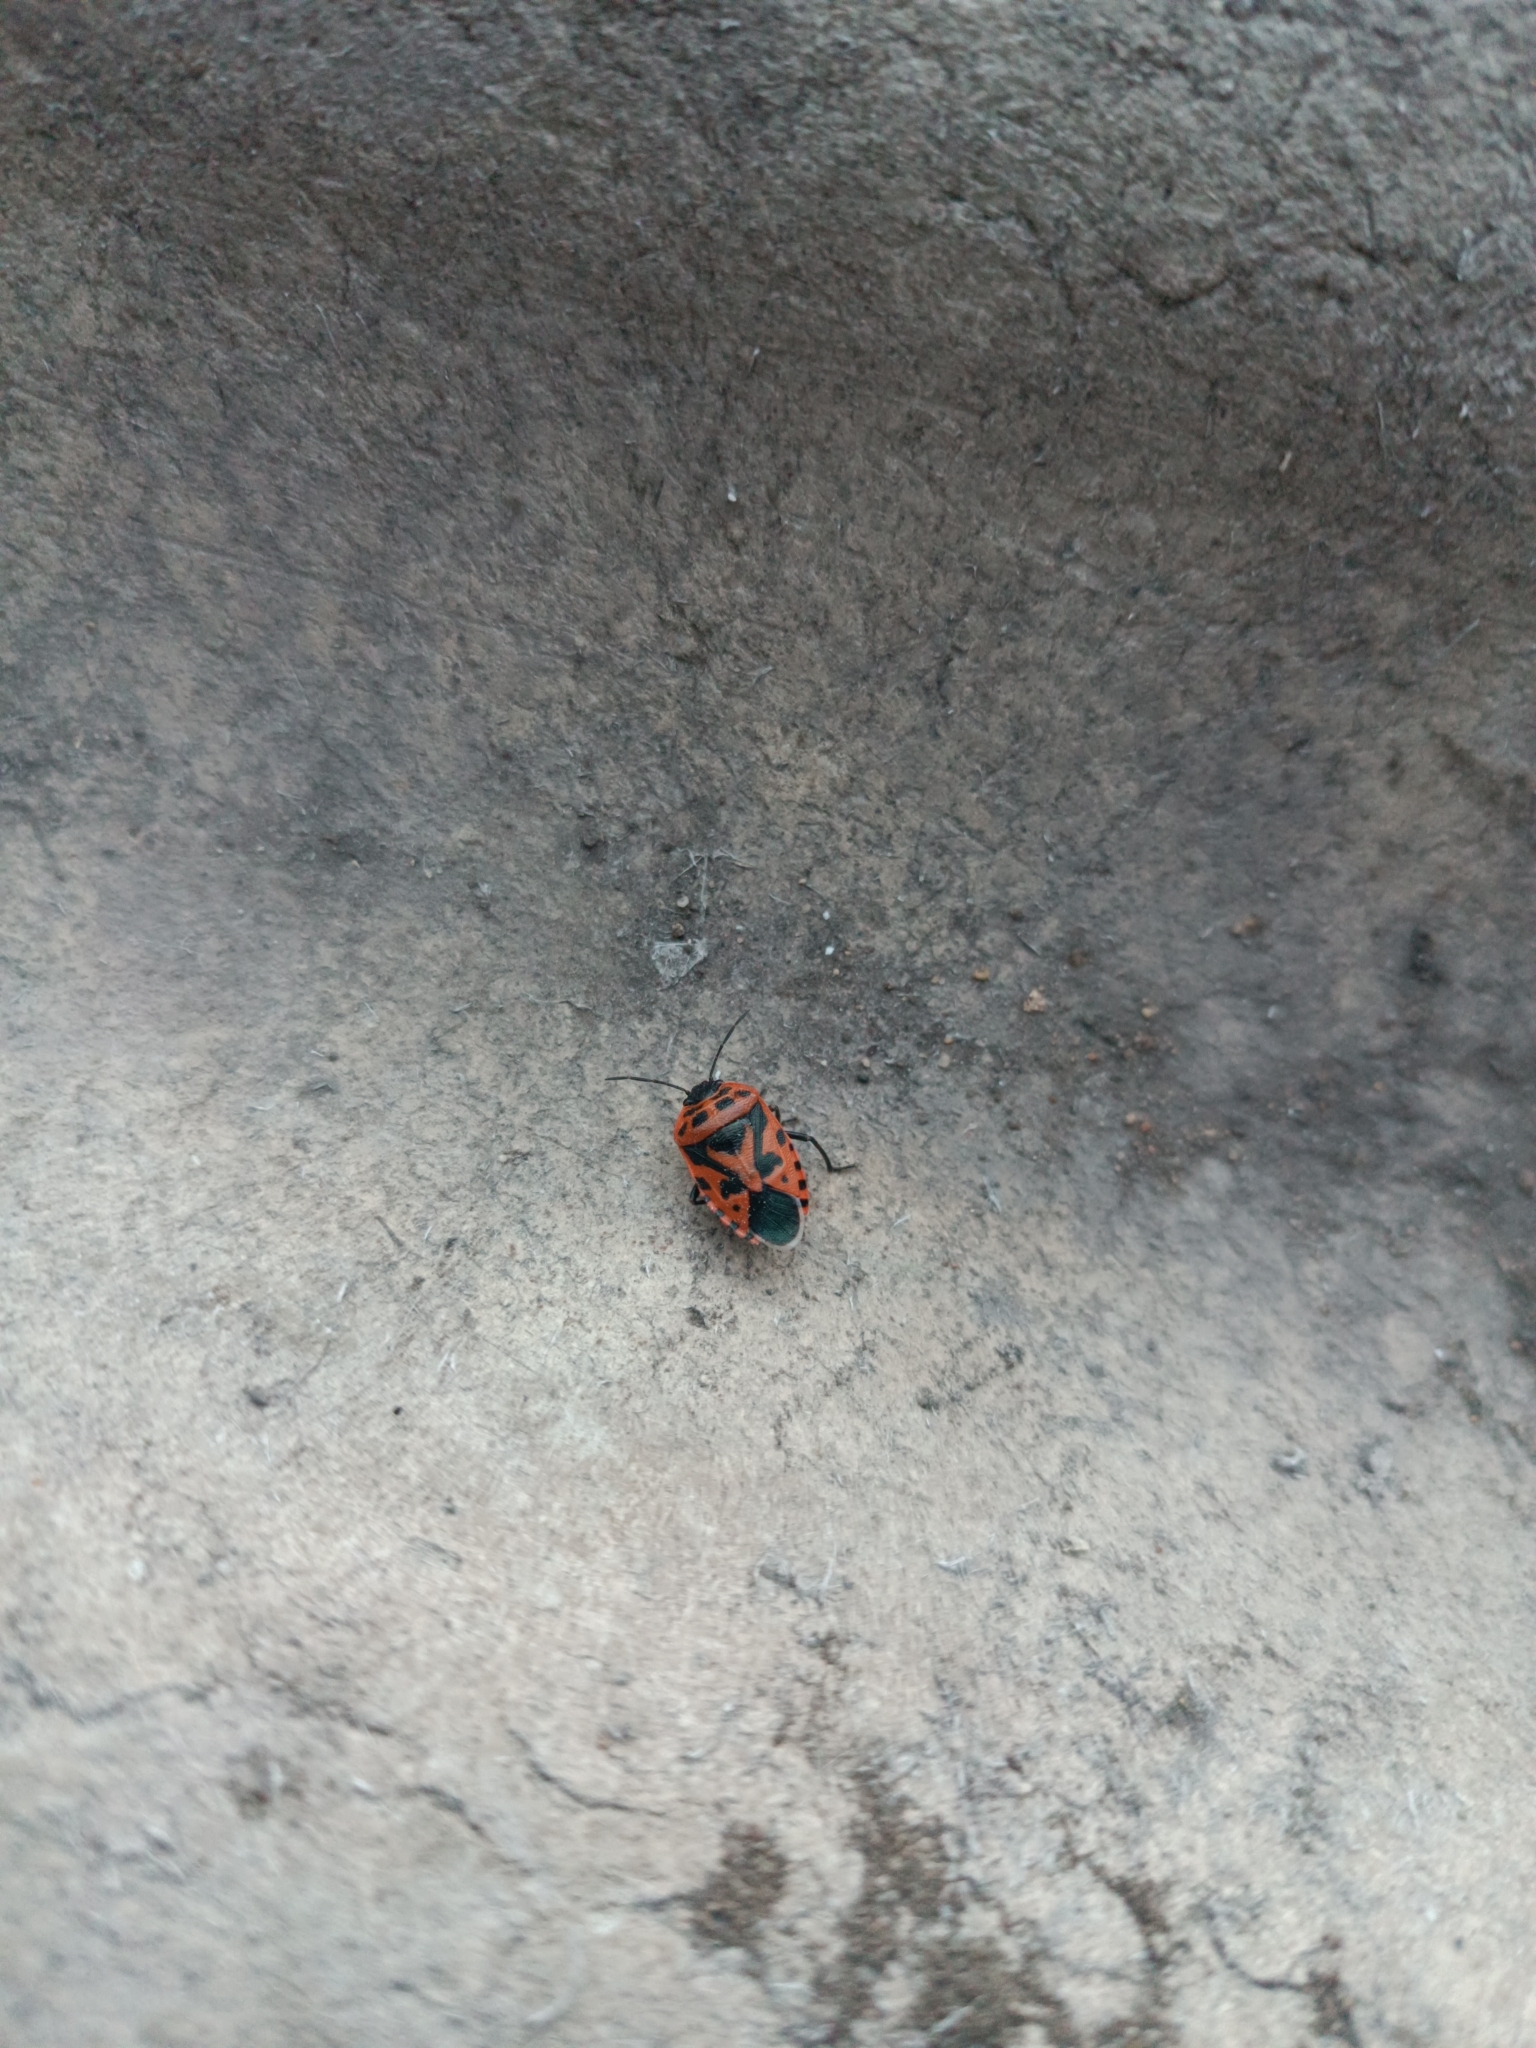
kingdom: Animalia
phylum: Arthropoda
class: Insecta
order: Hemiptera
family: Pentatomidae
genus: Eurydema
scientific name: Eurydema ventralis
